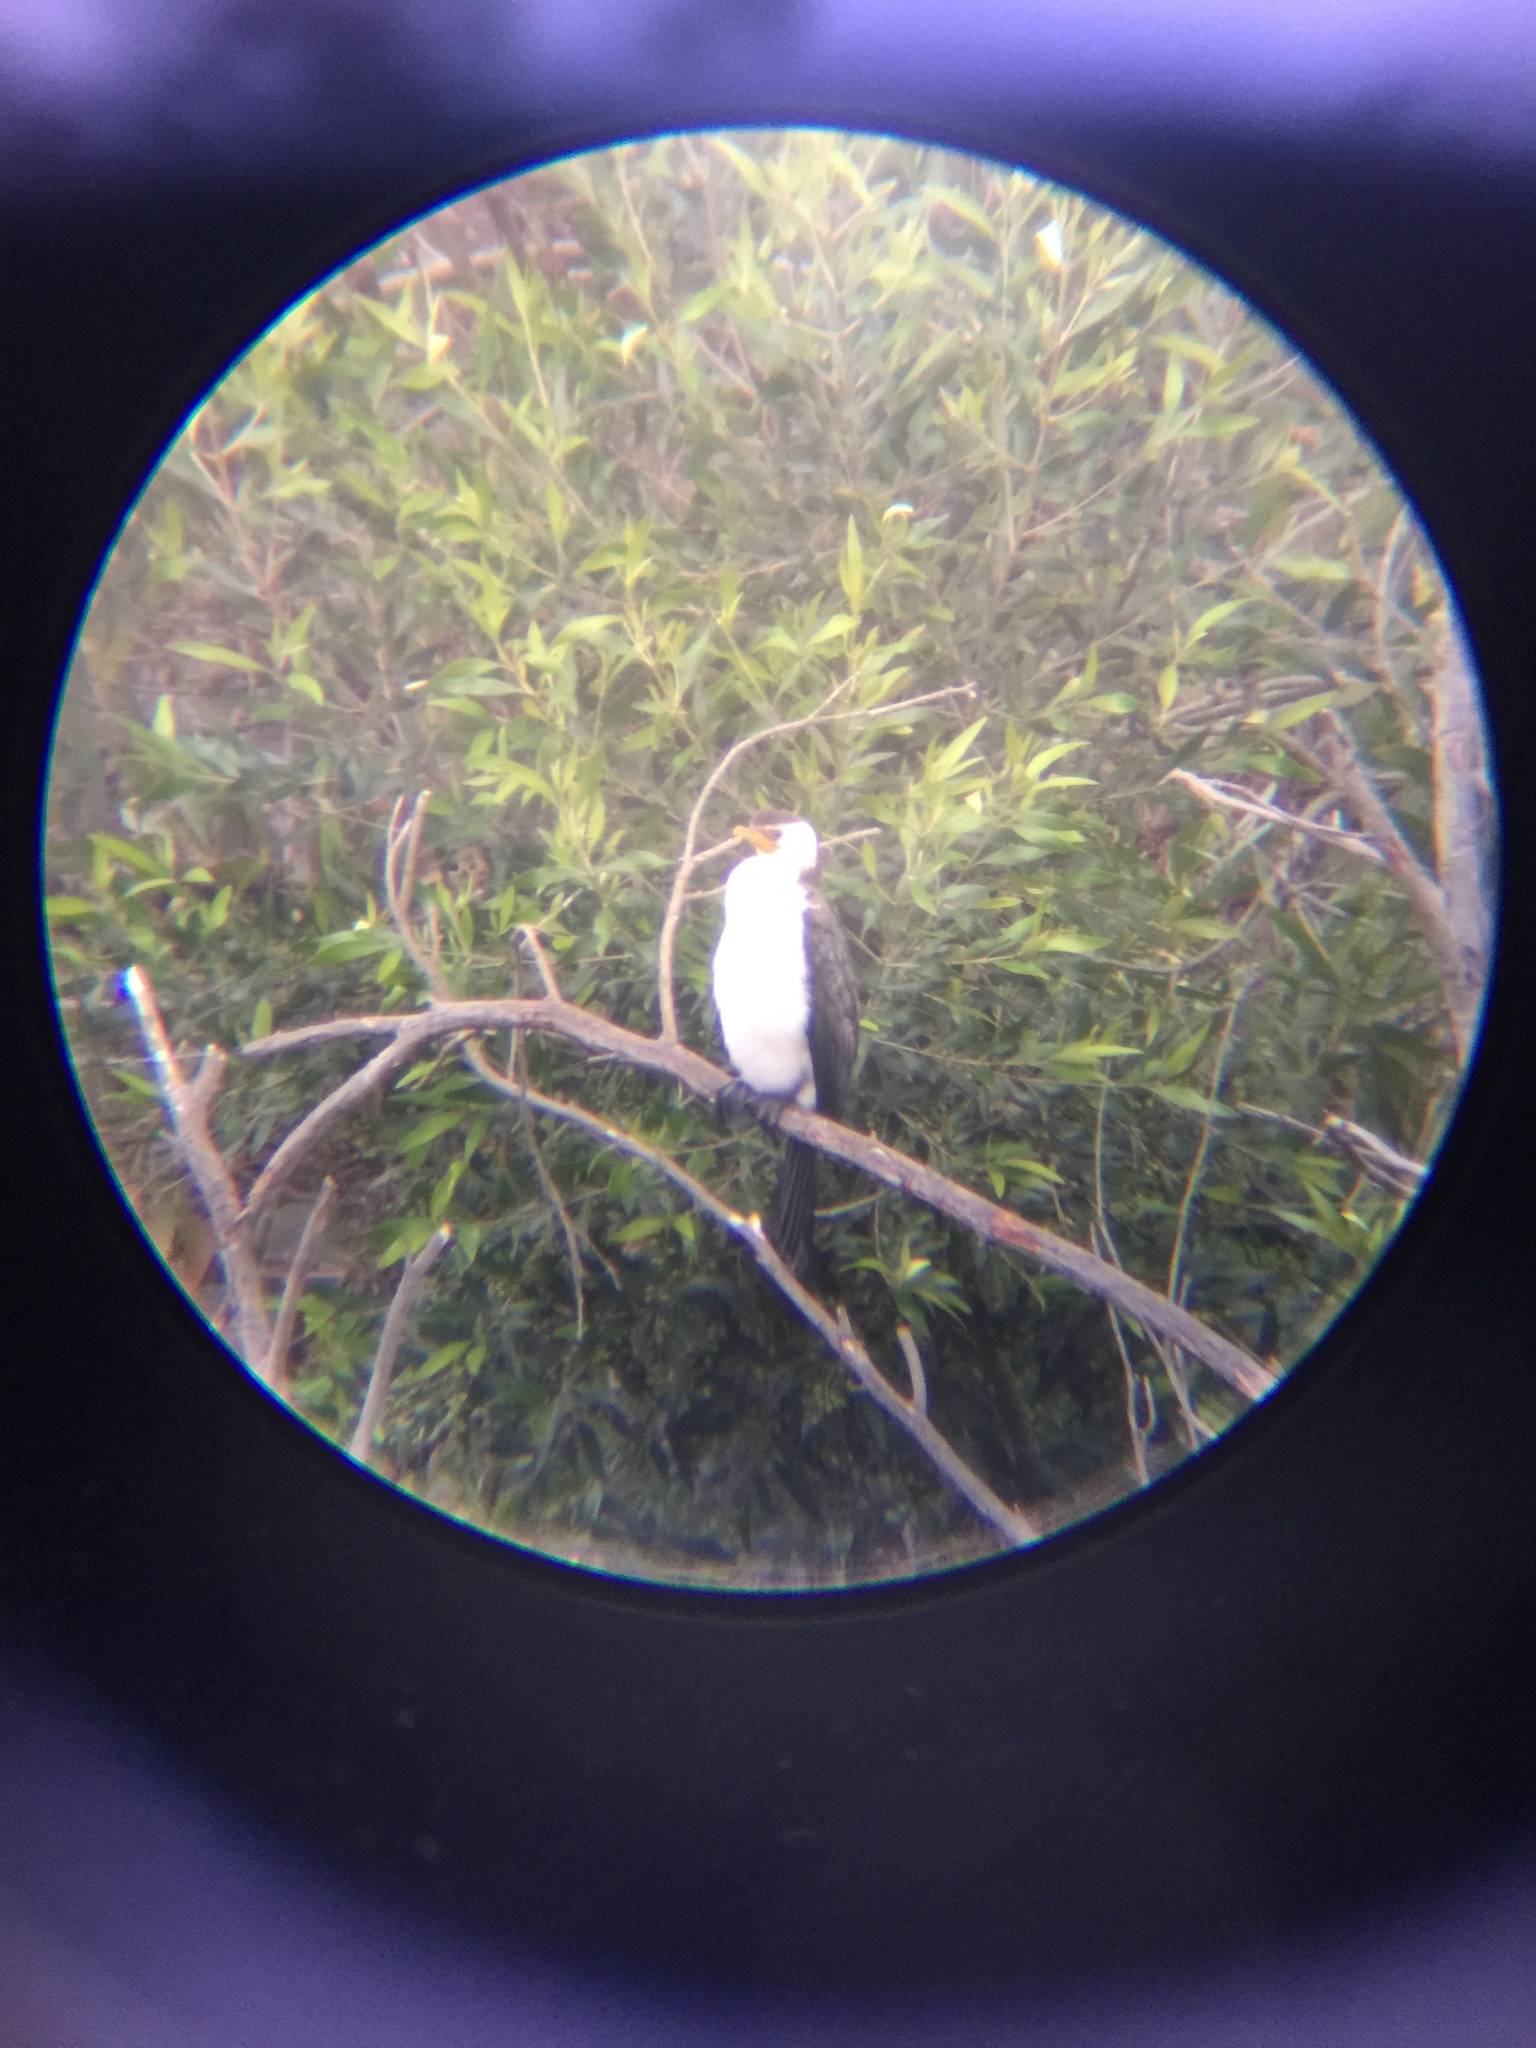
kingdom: Animalia
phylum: Chordata
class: Aves
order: Suliformes
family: Phalacrocoracidae
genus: Microcarbo
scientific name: Microcarbo melanoleucos
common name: Little pied cormorant
